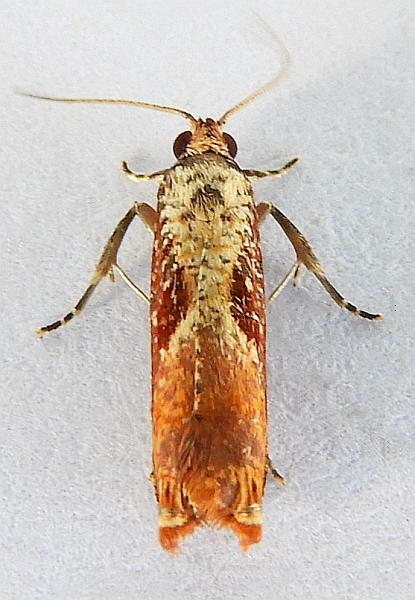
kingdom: Animalia
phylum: Arthropoda
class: Insecta
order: Lepidoptera
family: Tortricidae
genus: Episimus
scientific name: Episimus tyrius
